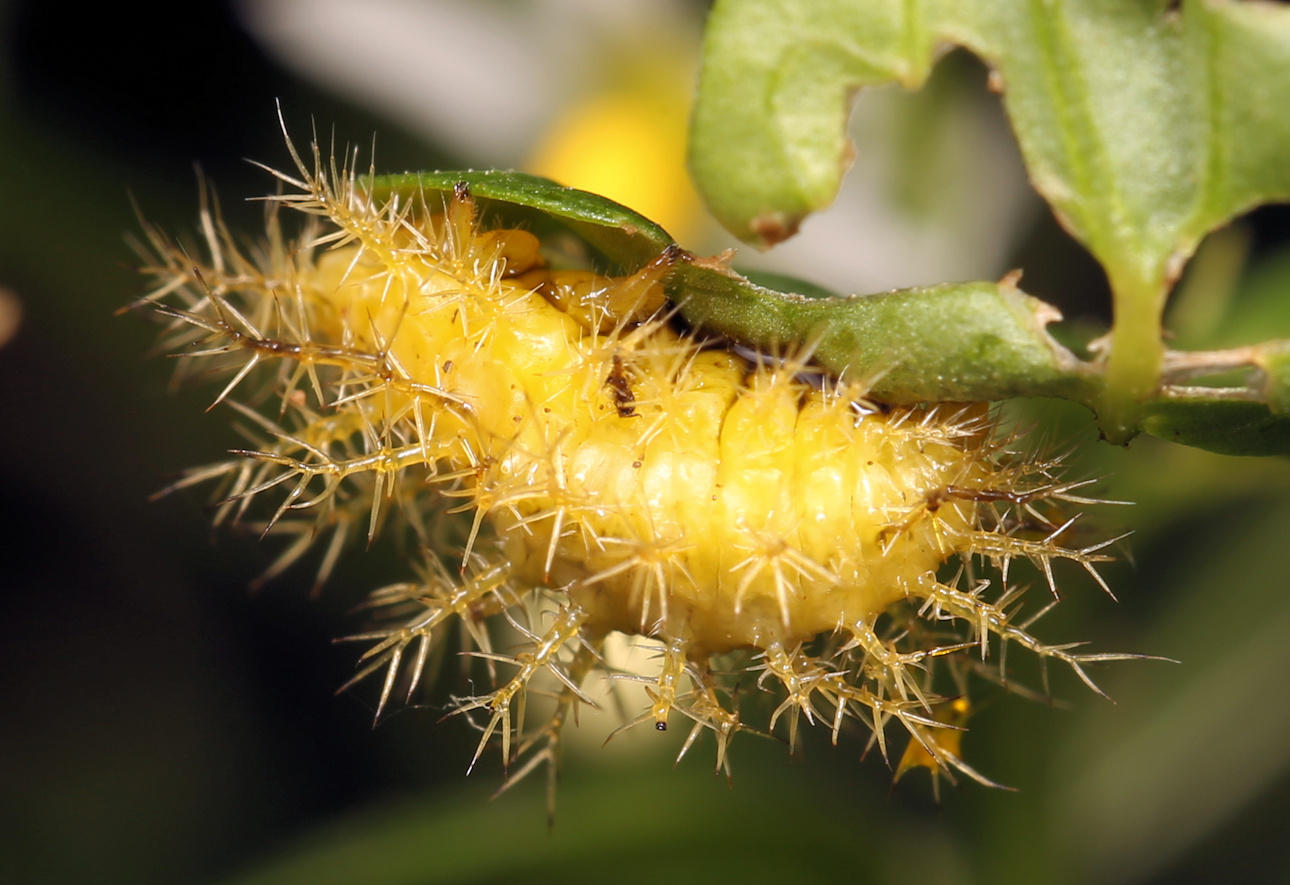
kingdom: Animalia
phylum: Arthropoda
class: Insecta
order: Coleoptera
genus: Solanophila
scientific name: Solanophila
